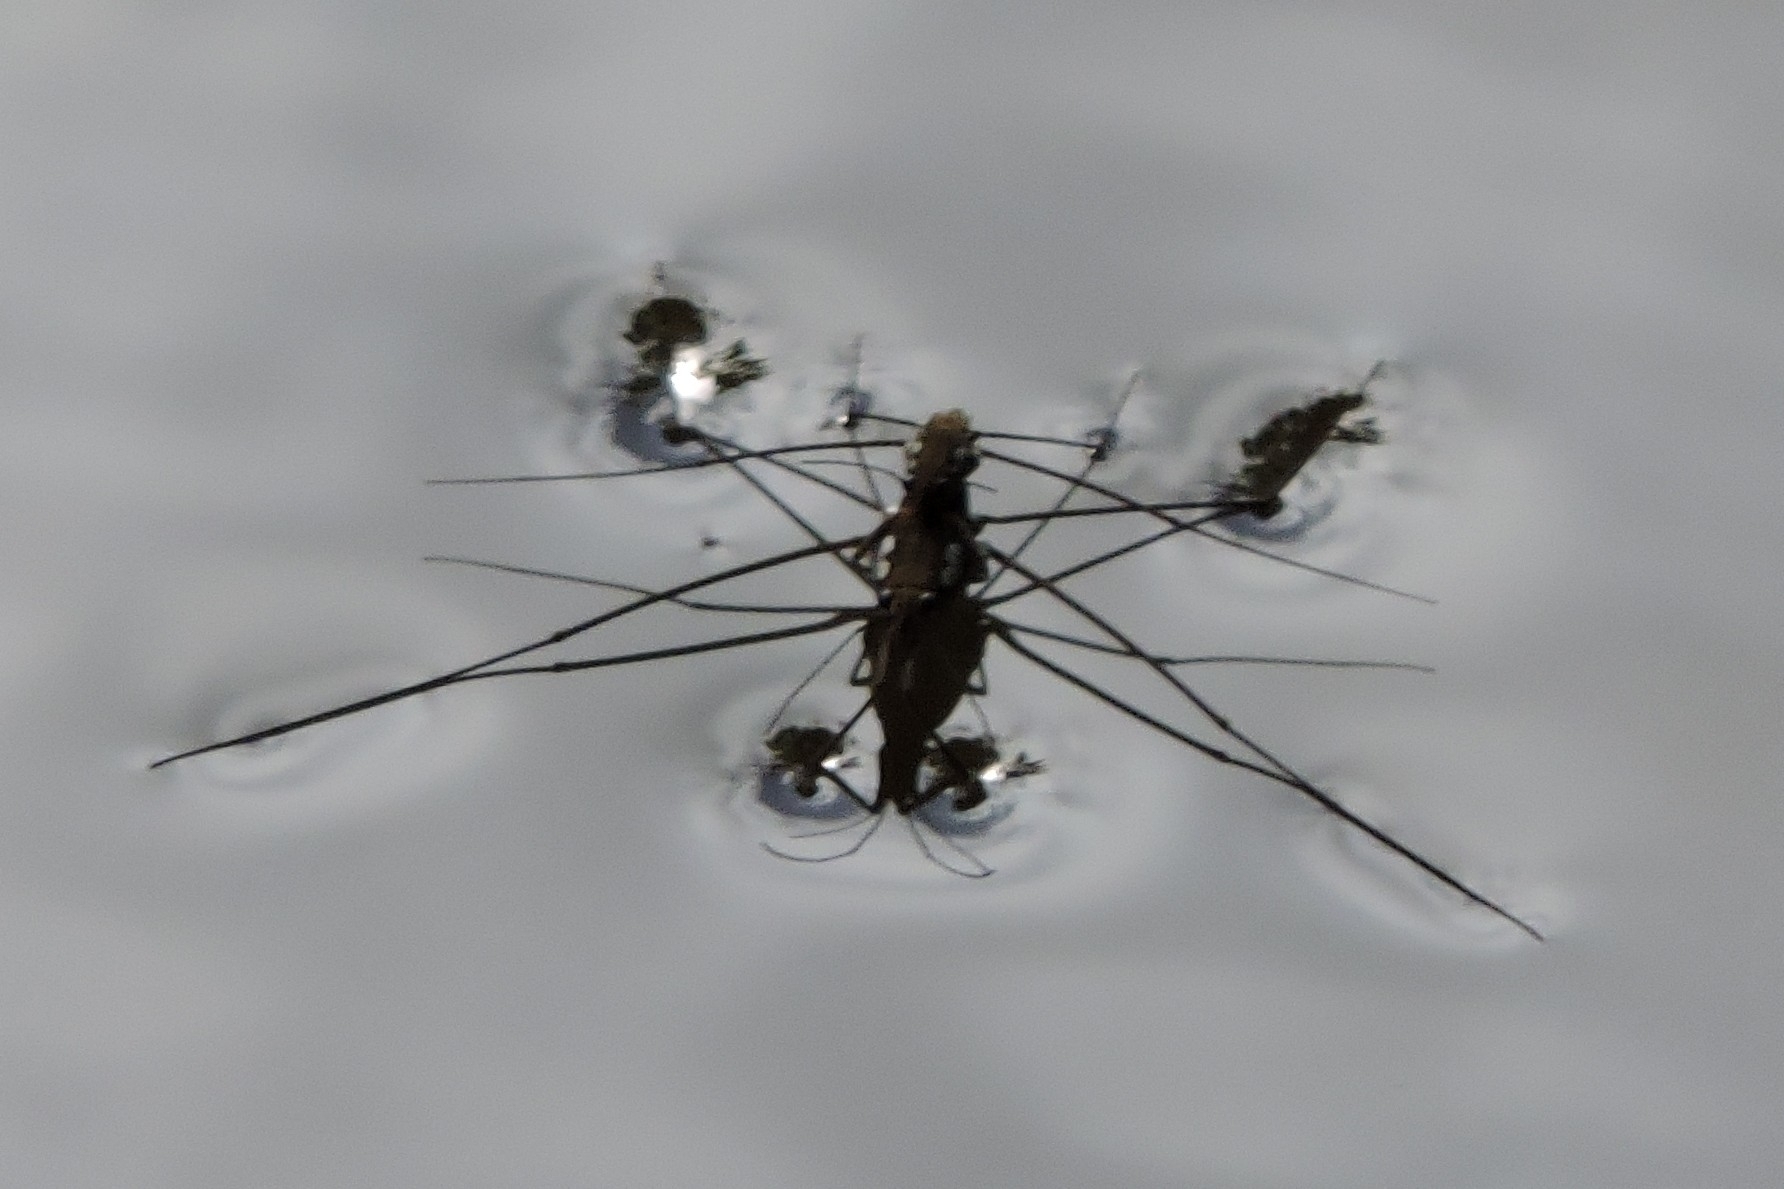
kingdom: Animalia
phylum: Arthropoda
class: Insecta
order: Hemiptera
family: Gerridae
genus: Tenagogerris
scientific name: Tenagogerris euphrosyne
